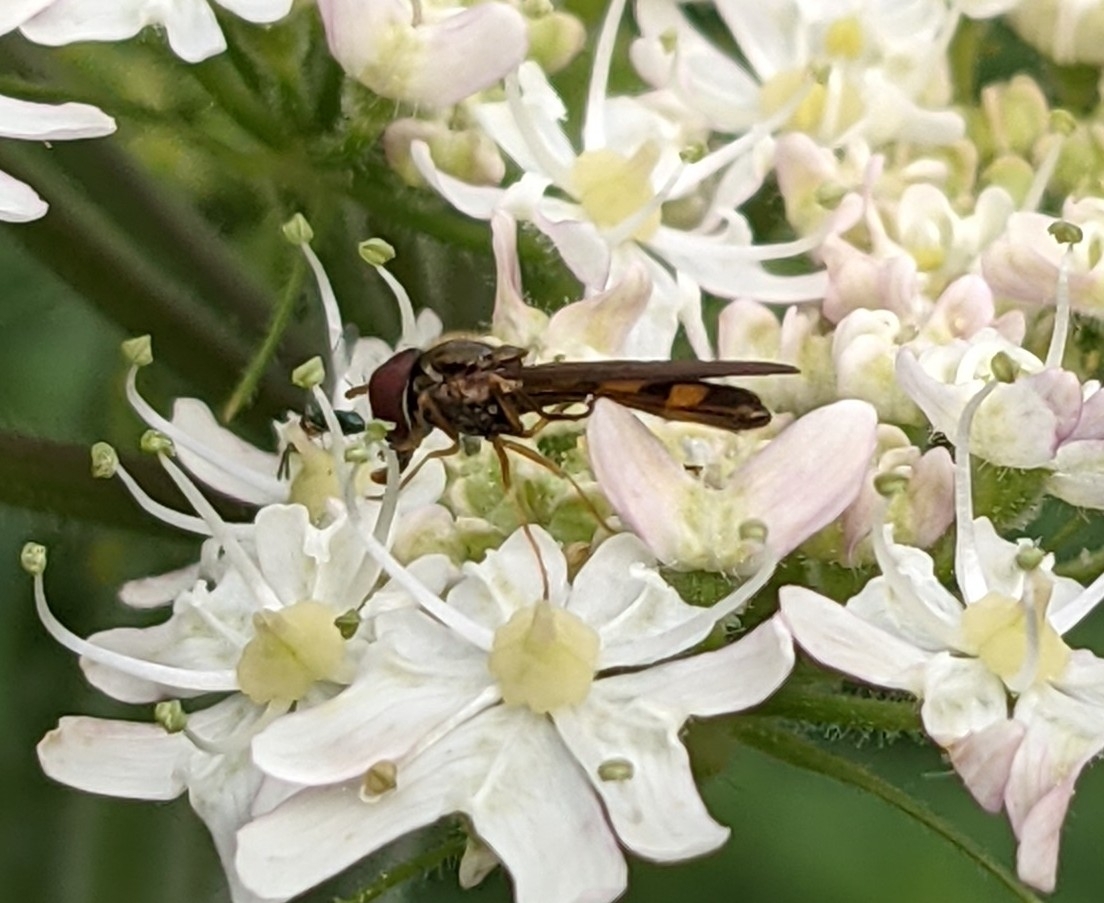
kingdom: Animalia
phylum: Arthropoda
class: Insecta
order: Diptera
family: Syrphidae
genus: Melanostoma
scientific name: Melanostoma scalare
